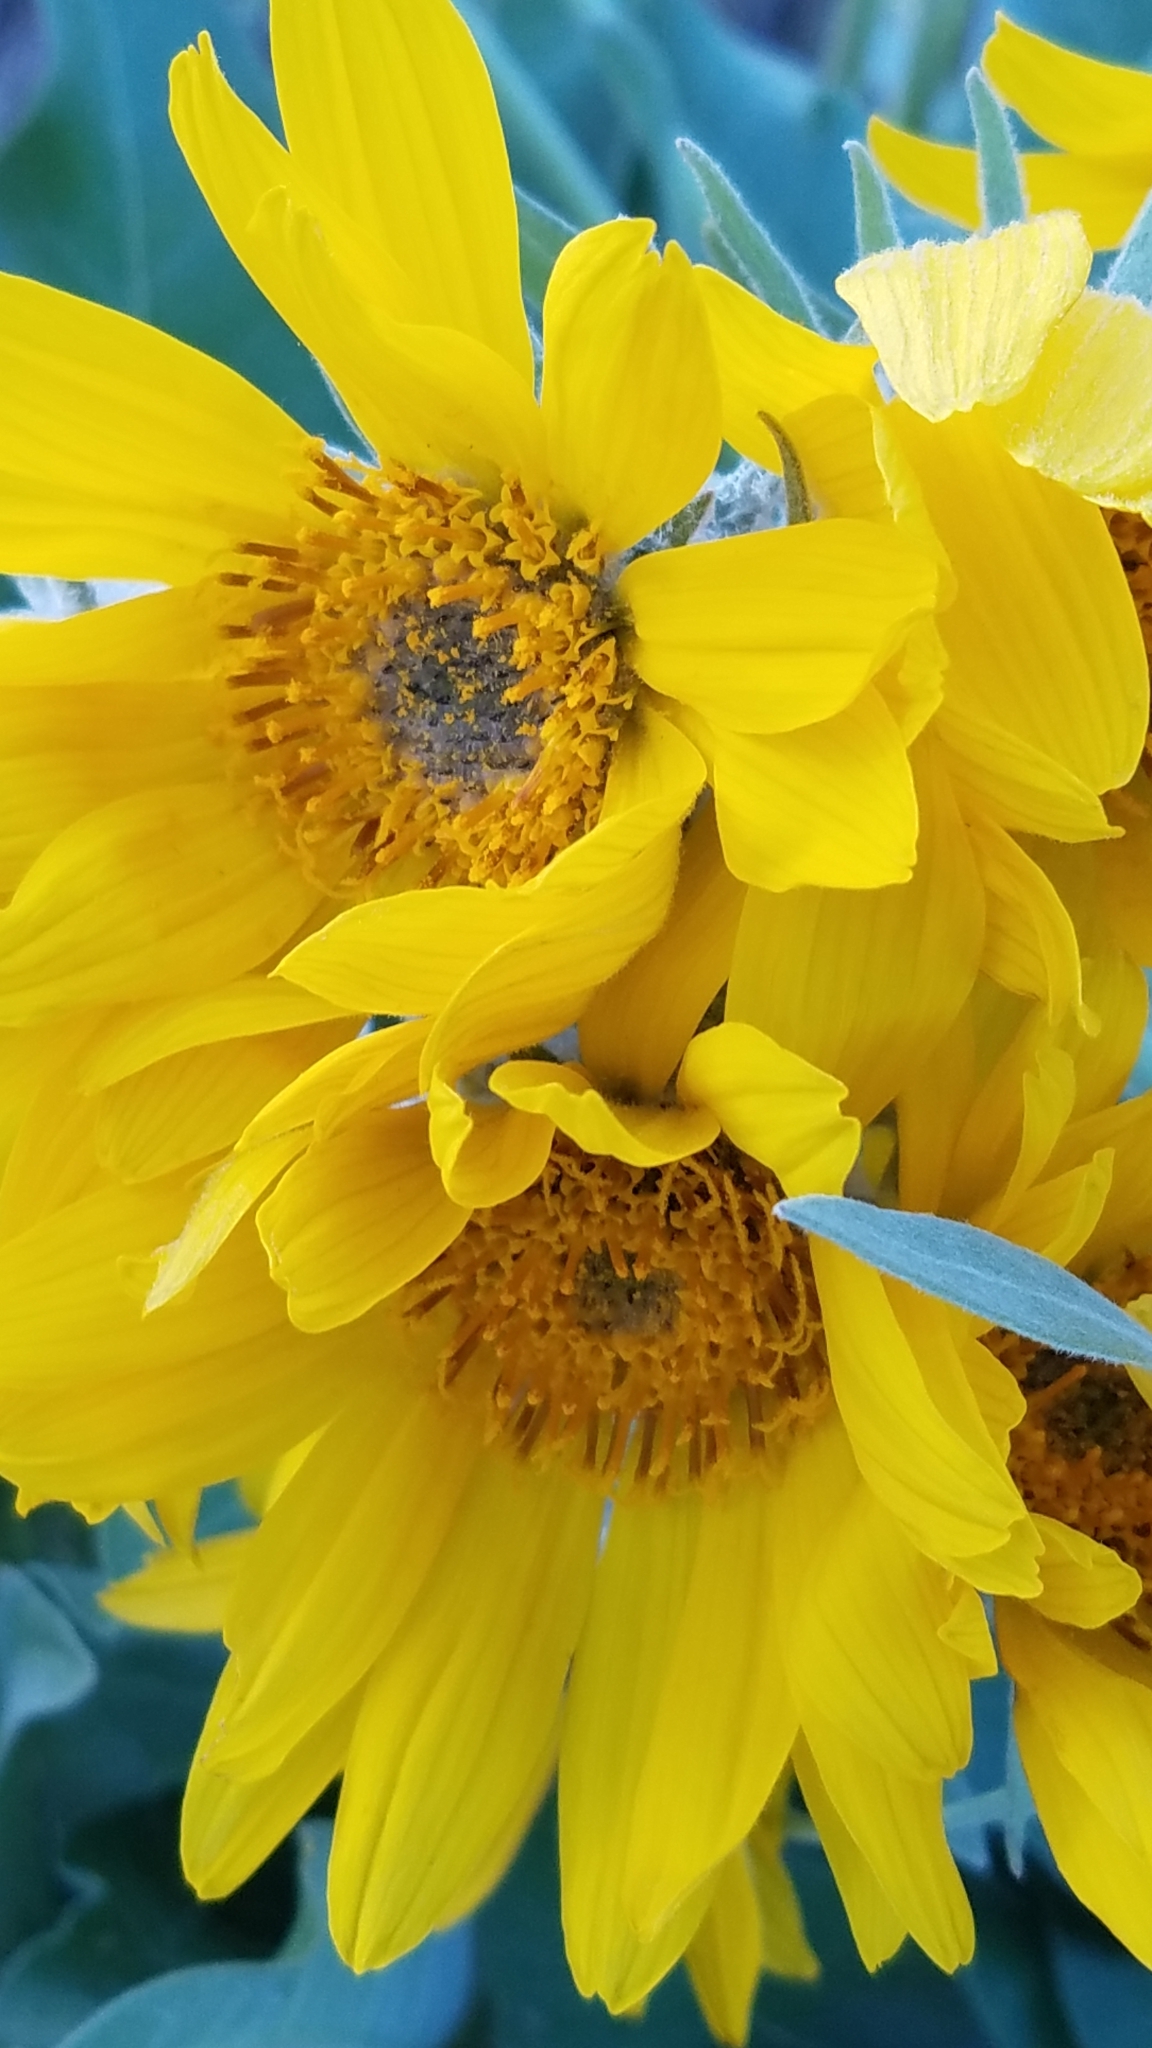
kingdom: Animalia
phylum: Arthropoda
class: Insecta
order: Hymenoptera
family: Apidae
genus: Bombus
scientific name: Bombus huntii
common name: Hunt bumble bee
